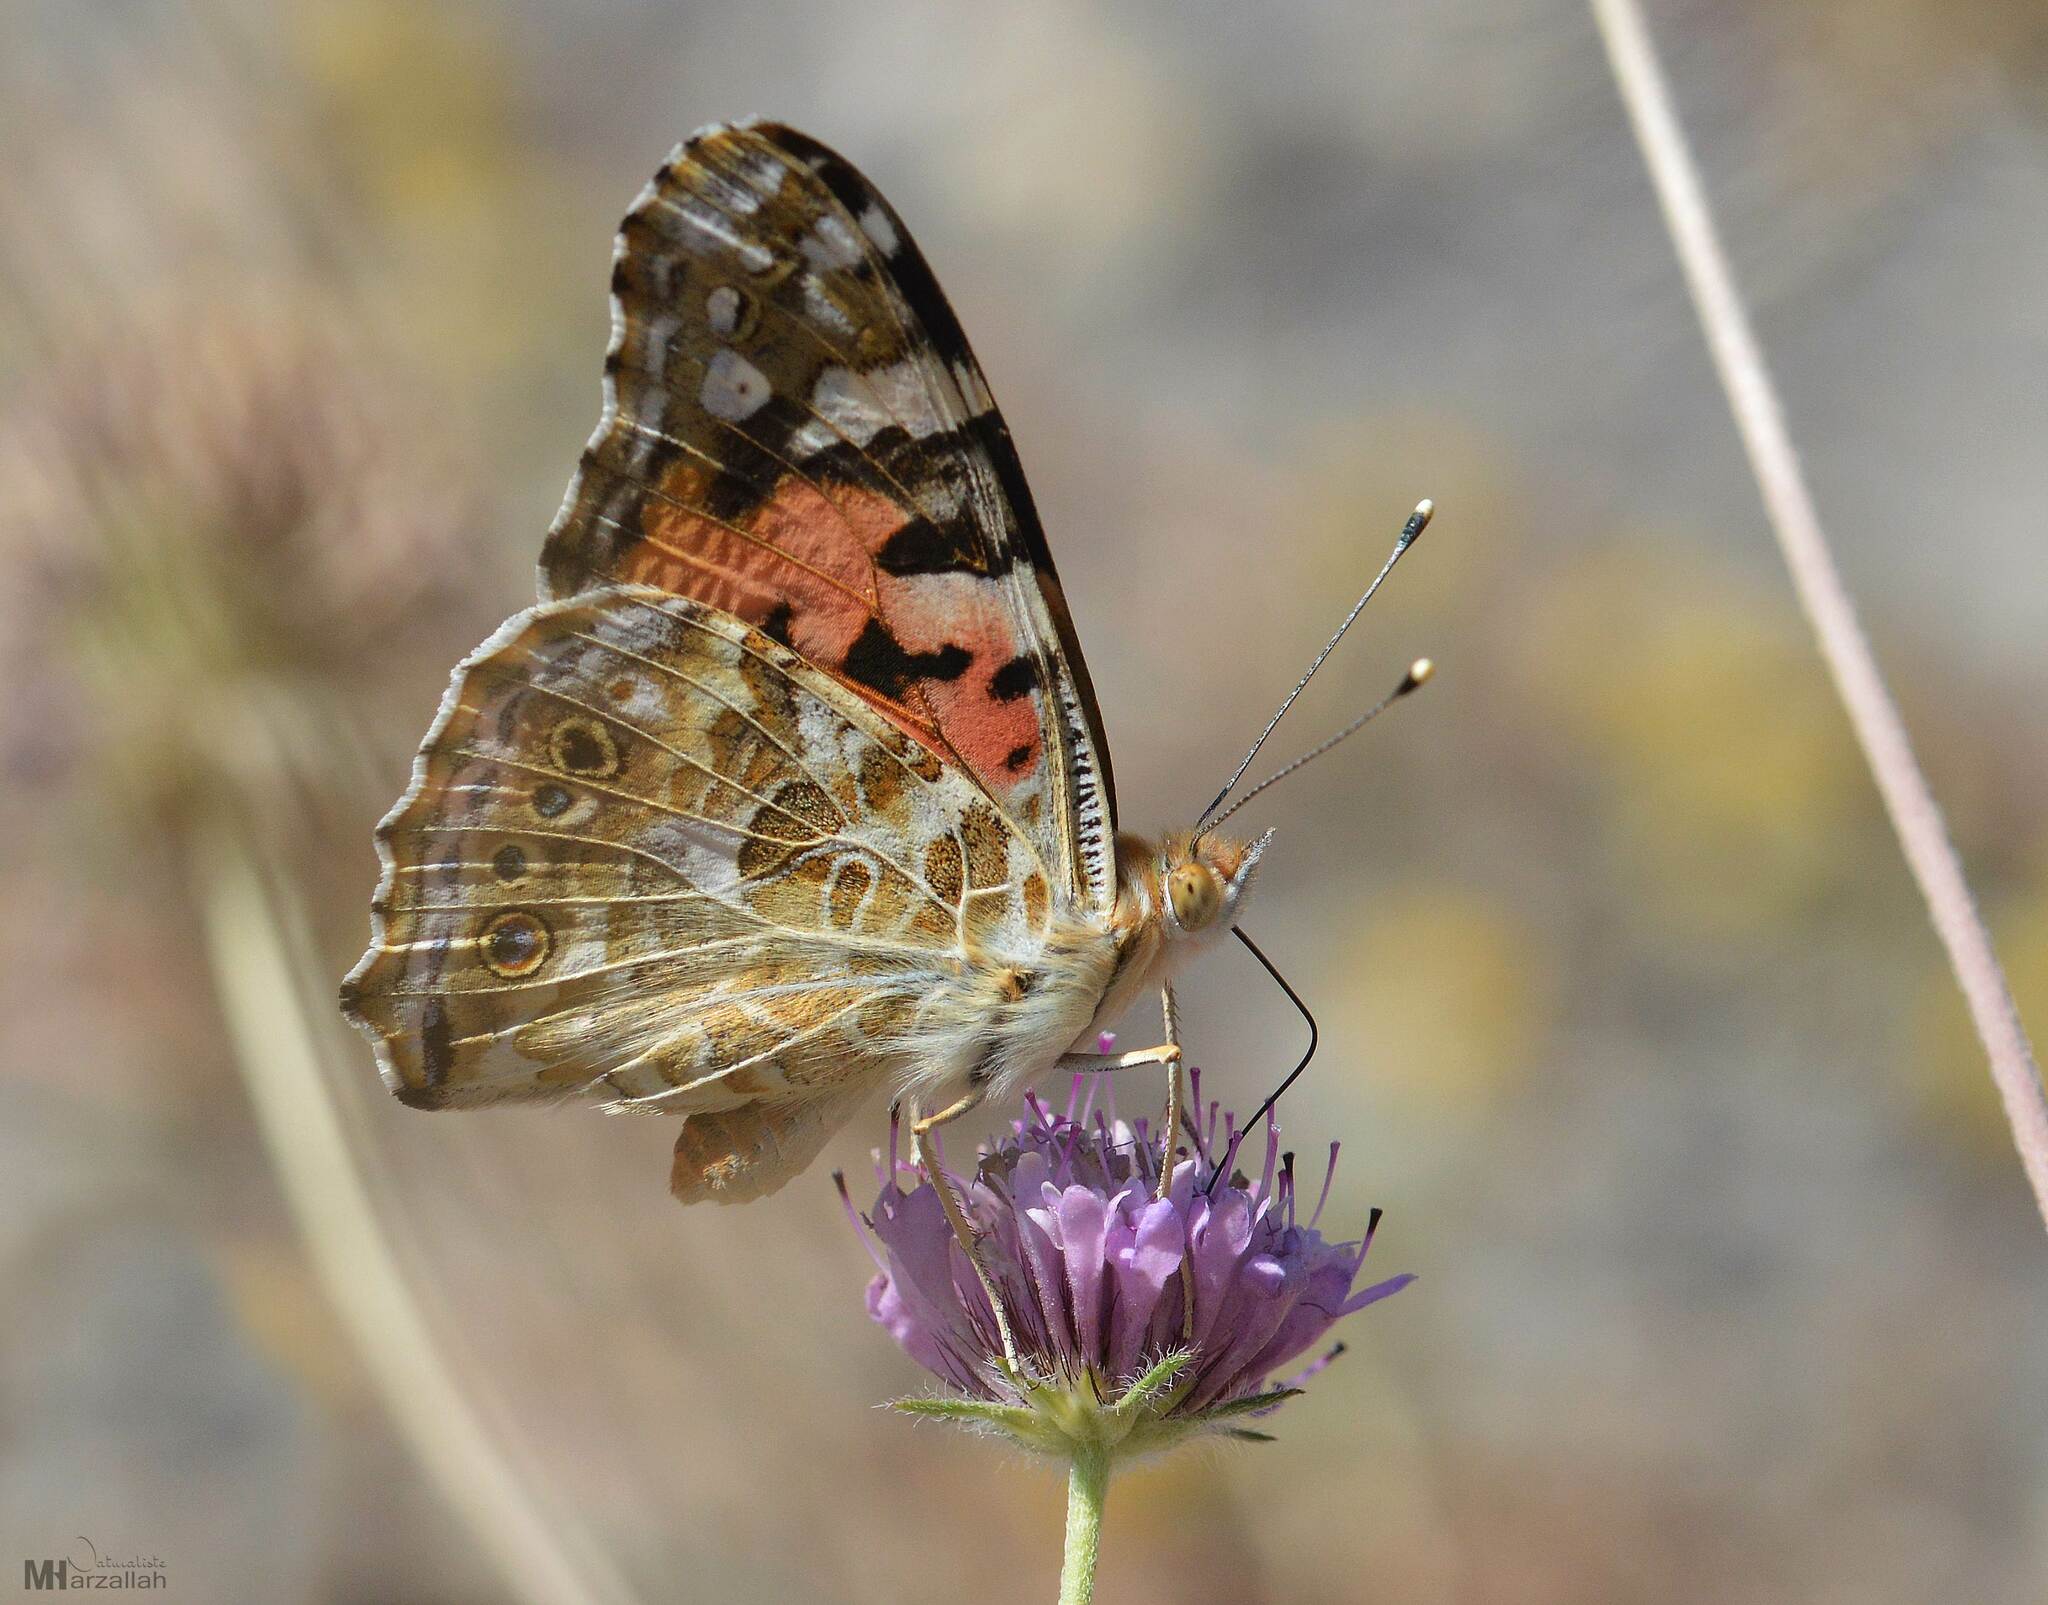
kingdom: Animalia
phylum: Arthropoda
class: Insecta
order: Lepidoptera
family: Nymphalidae
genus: Vanessa
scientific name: Vanessa cardui
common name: Painted lady
